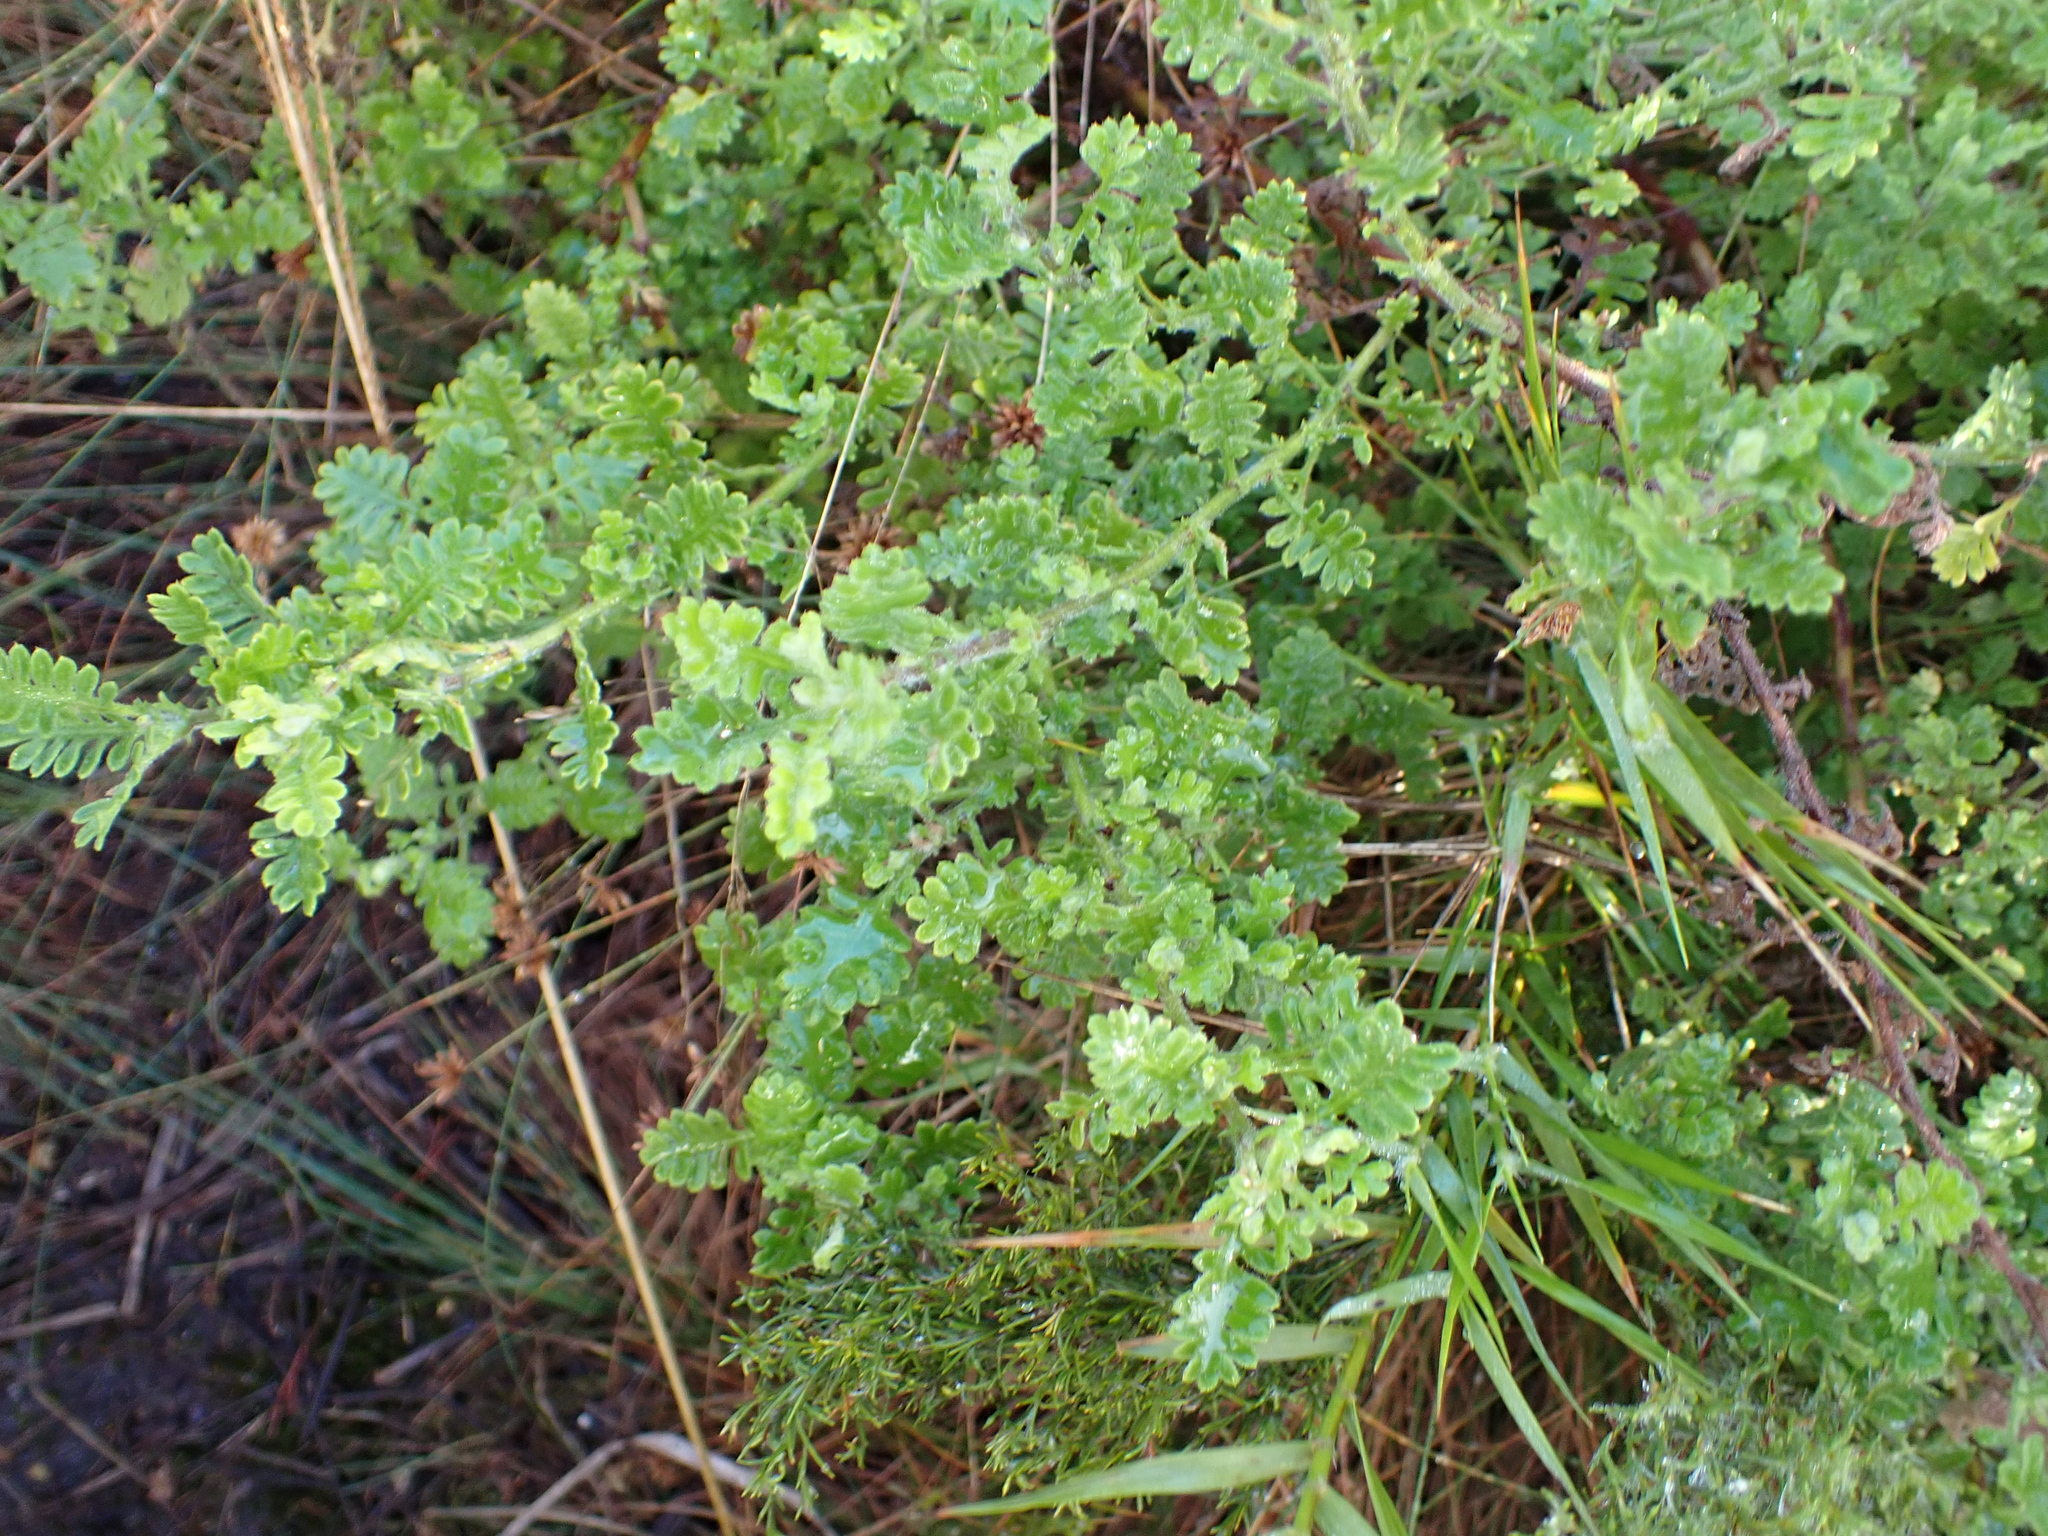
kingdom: Plantae
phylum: Tracheophyta
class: Magnoliopsida
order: Asterales
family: Asteraceae
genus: Hippia
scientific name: Hippia frutescens
